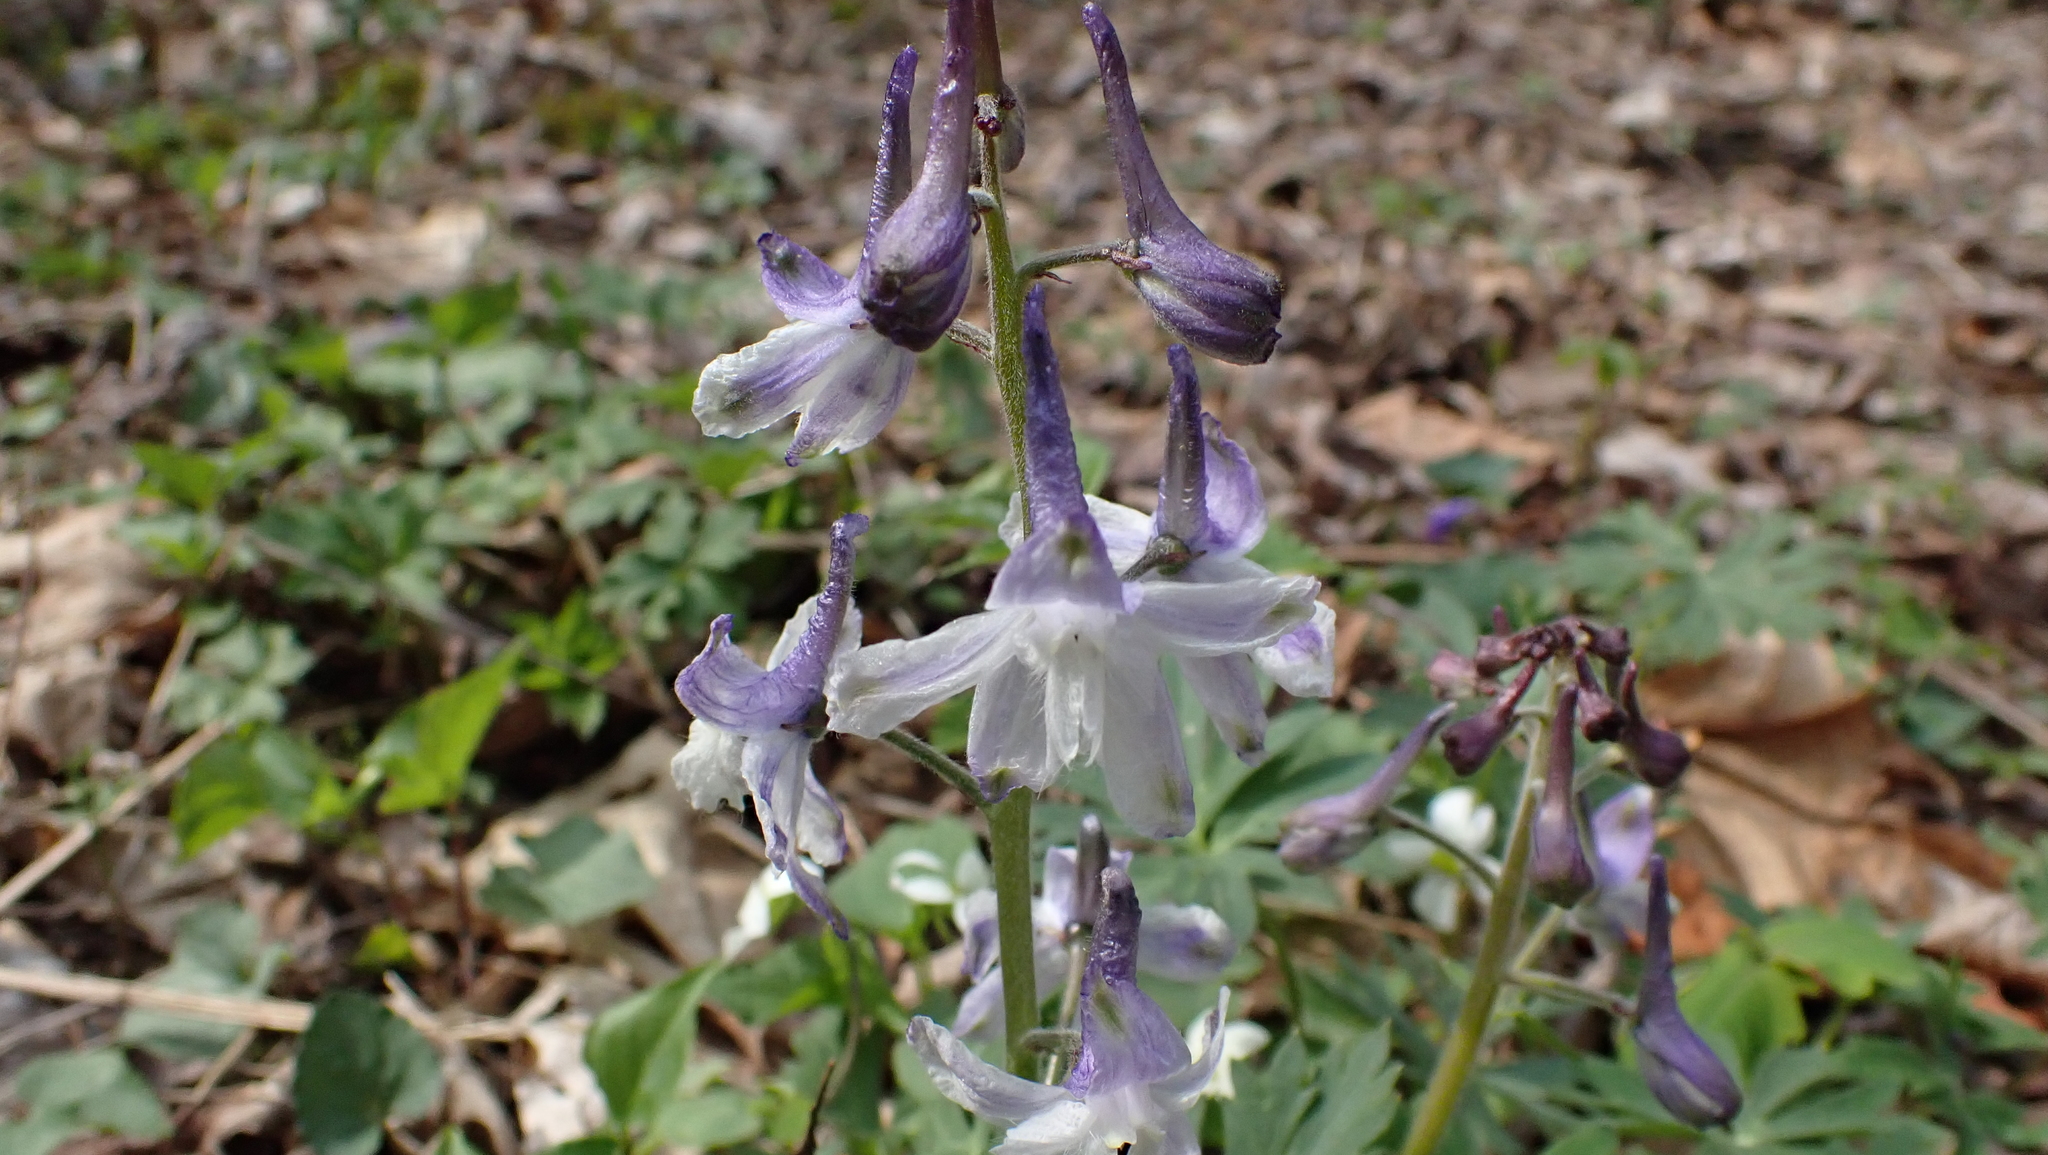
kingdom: Plantae
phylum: Tracheophyta
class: Magnoliopsida
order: Ranunculales
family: Ranunculaceae
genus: Delphinium
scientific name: Delphinium tricorne
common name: Dwarf larkspur
